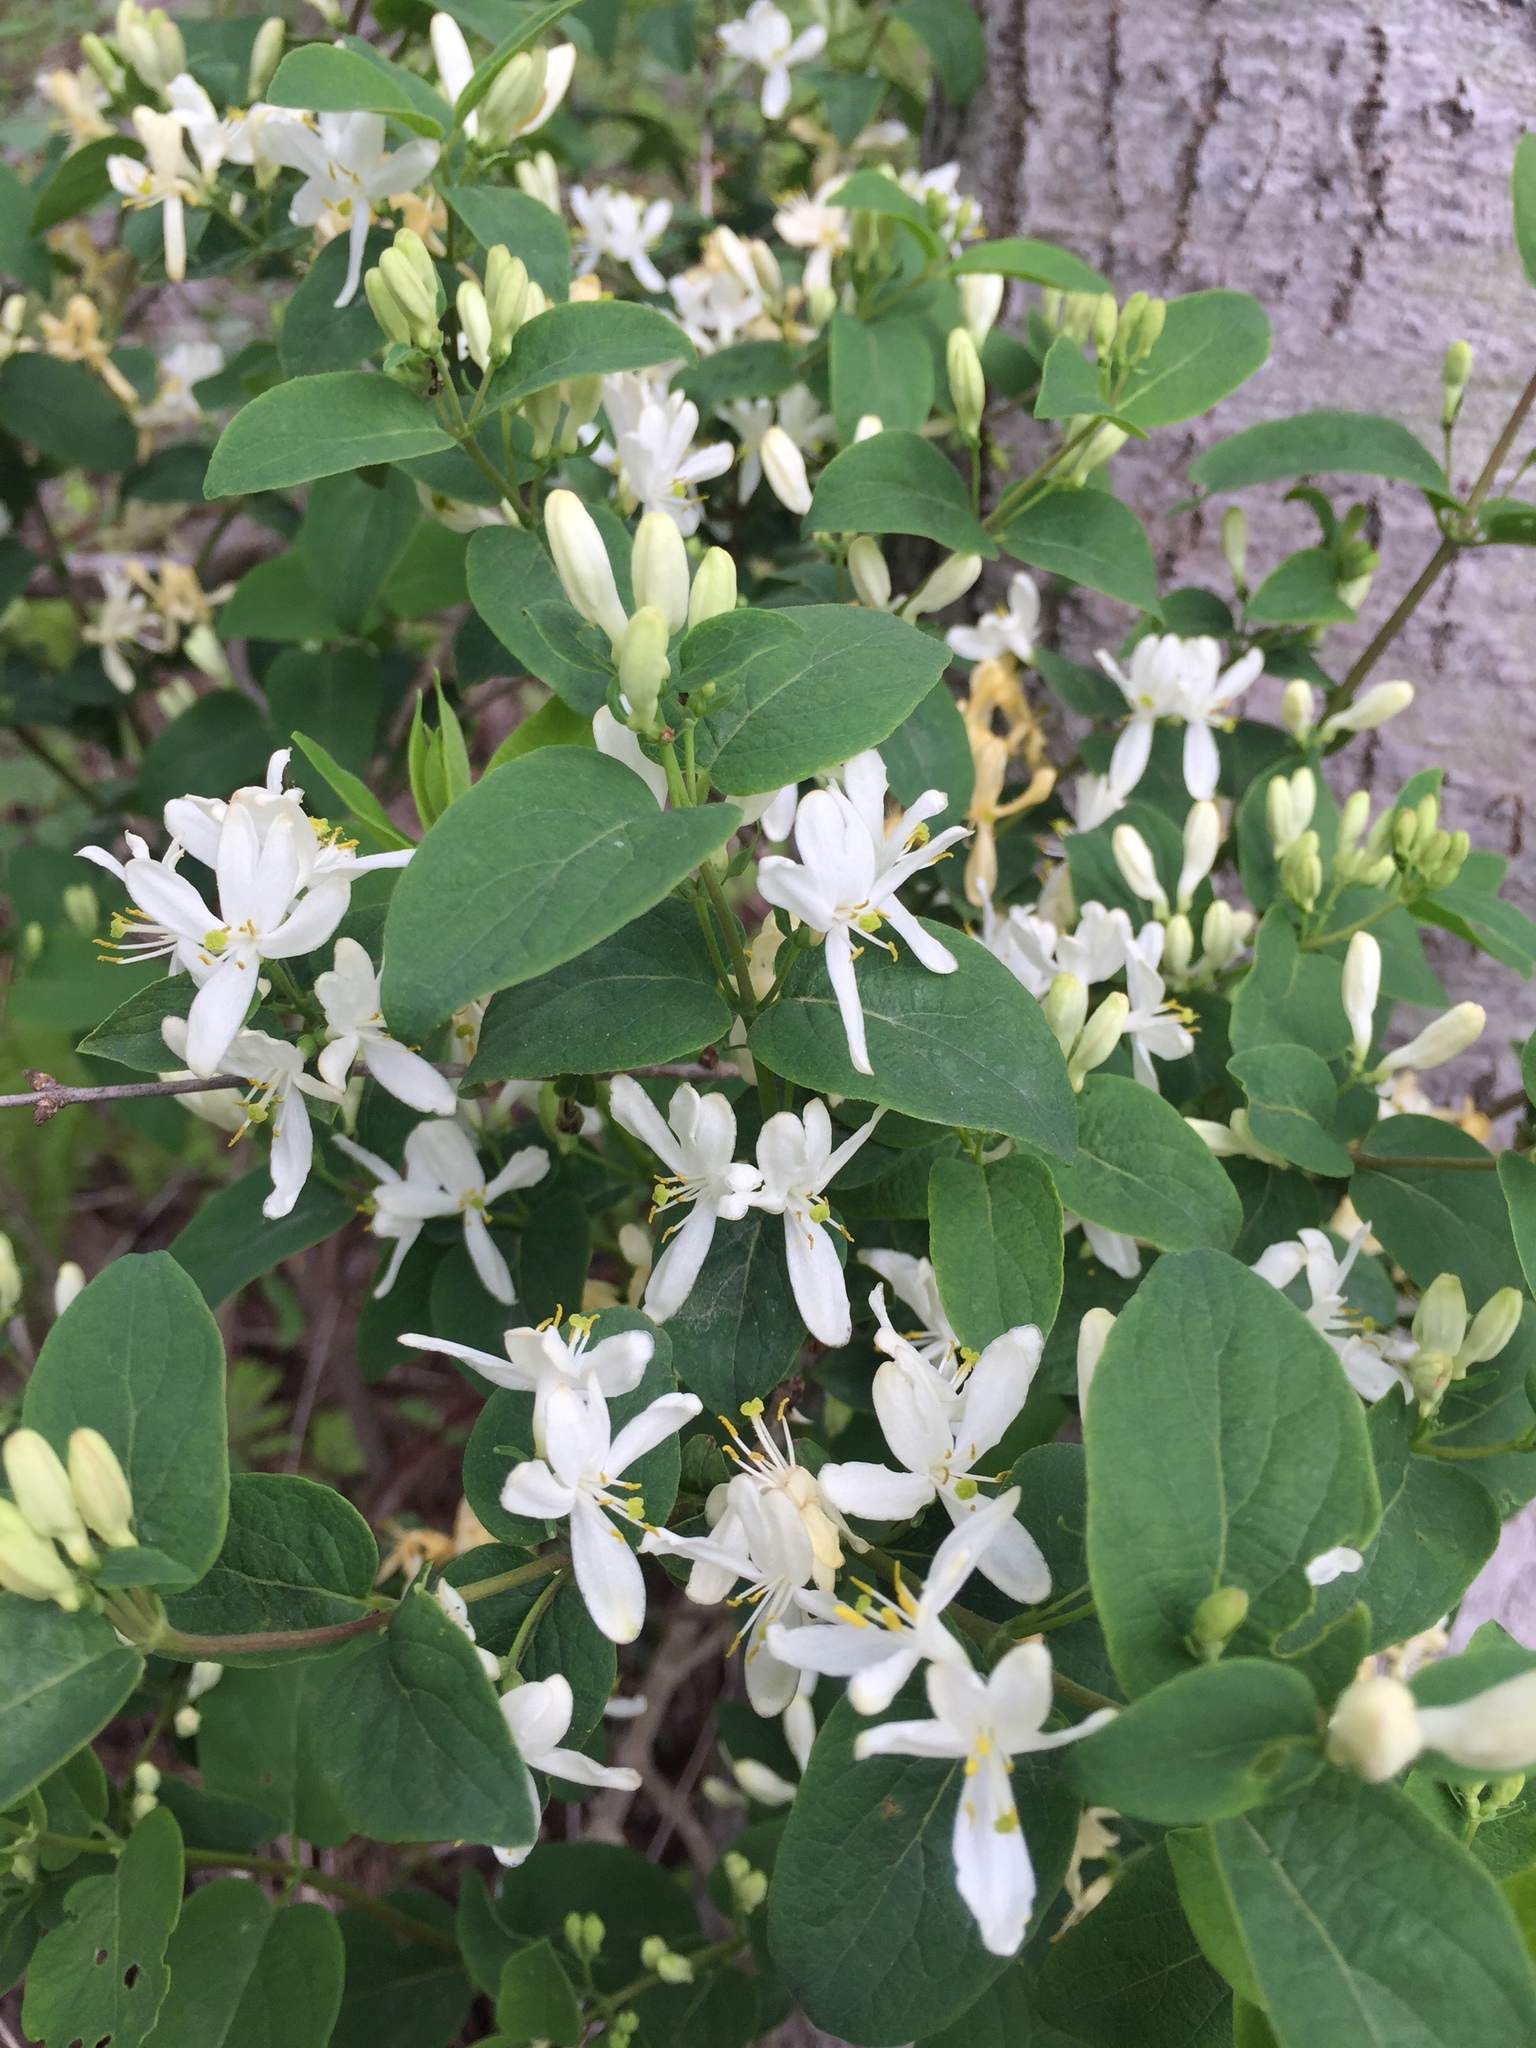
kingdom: Plantae
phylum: Tracheophyta
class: Magnoliopsida
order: Dipsacales
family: Caprifoliaceae
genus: Lonicera
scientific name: Lonicera morrowii
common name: Morrow's honeysuckle
